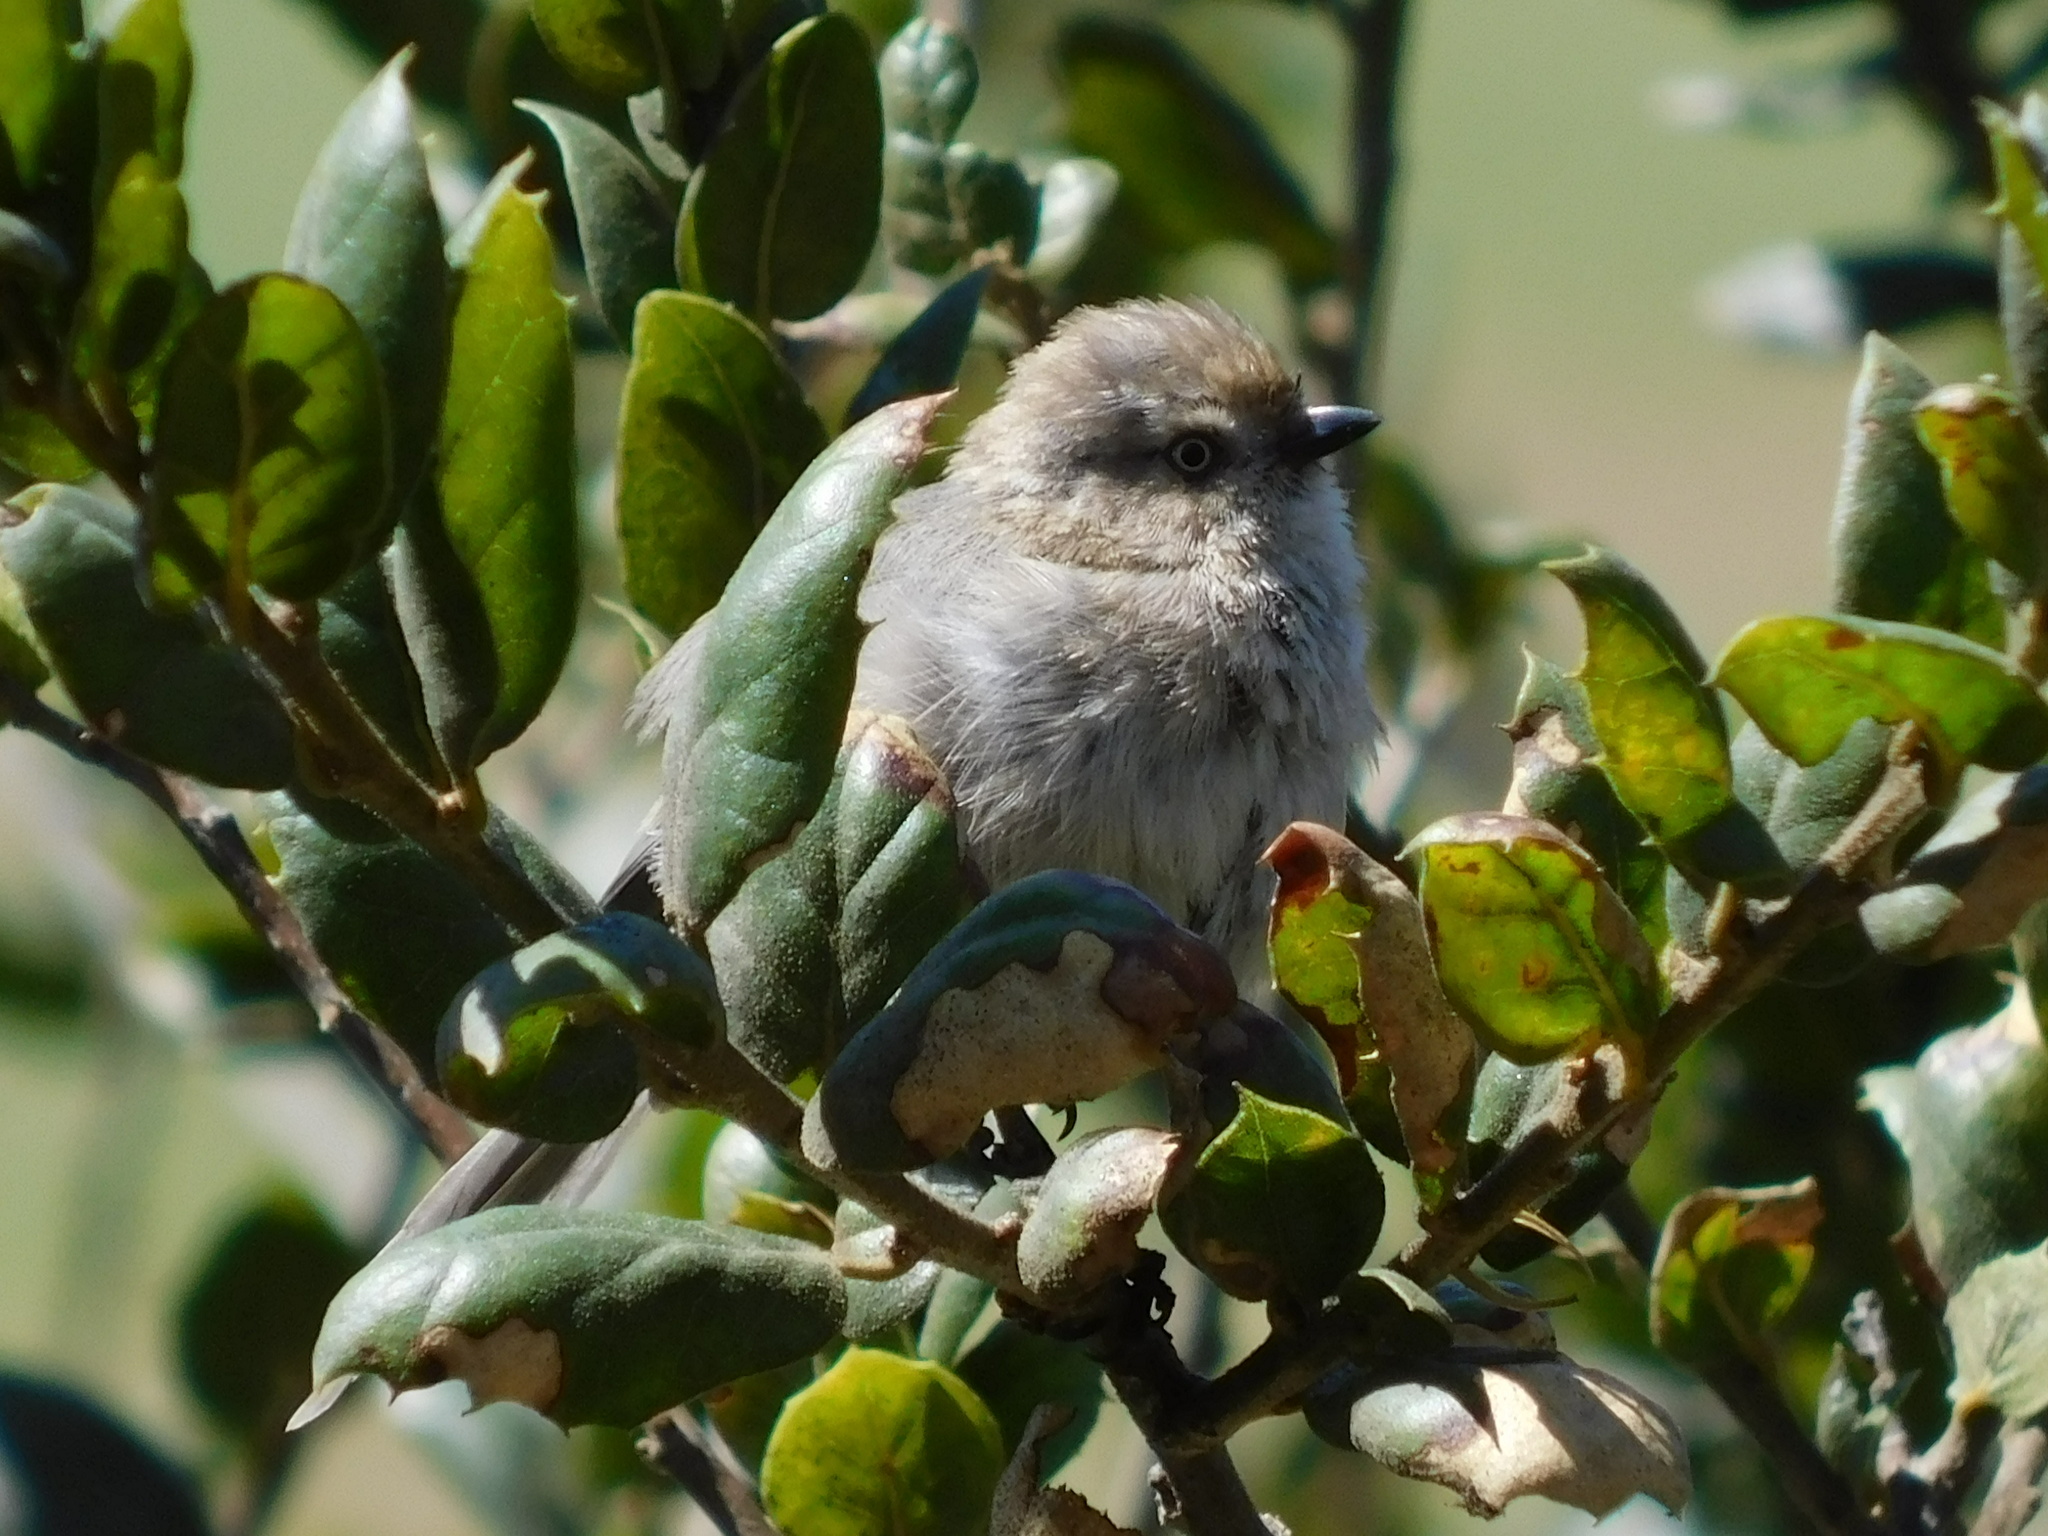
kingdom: Animalia
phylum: Chordata
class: Aves
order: Passeriformes
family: Aegithalidae
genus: Psaltriparus
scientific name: Psaltriparus minimus
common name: American bushtit
